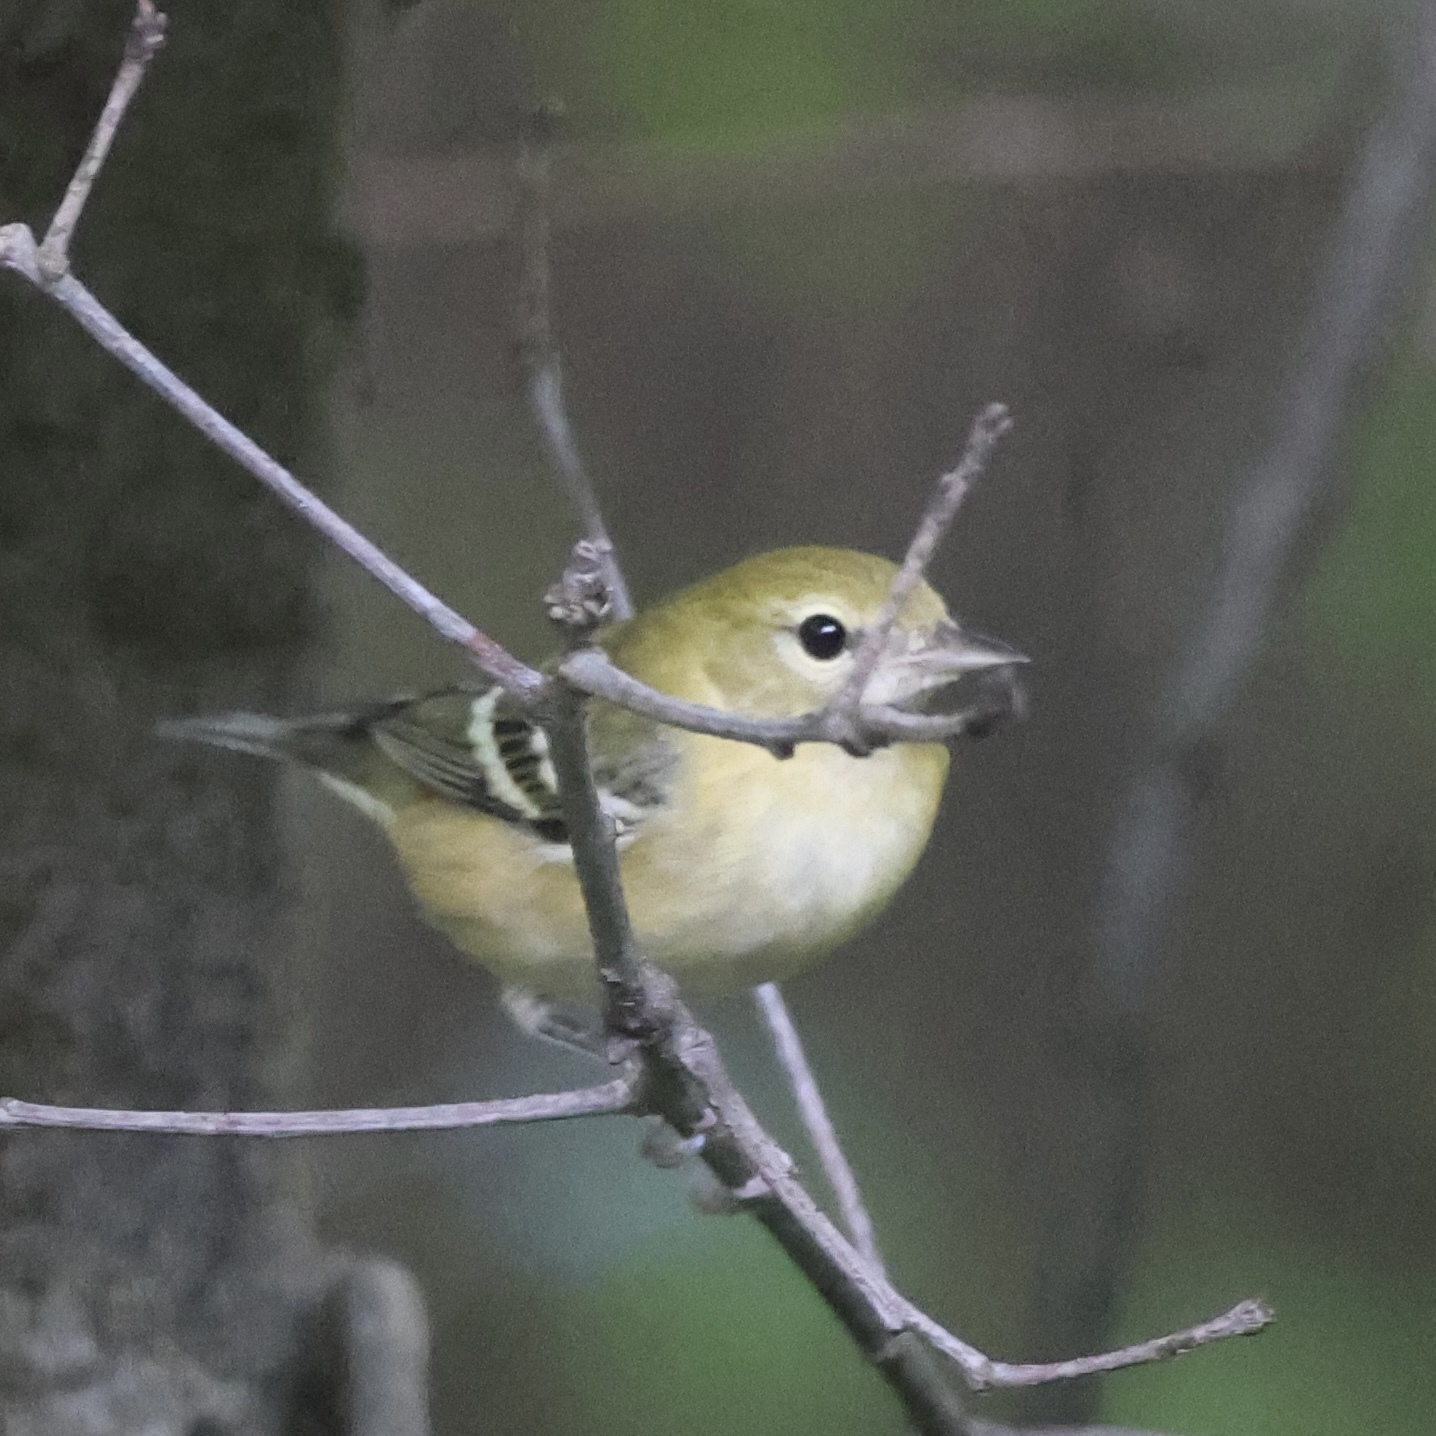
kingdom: Animalia
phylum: Chordata
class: Aves
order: Passeriformes
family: Parulidae
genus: Setophaga
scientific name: Setophaga castanea
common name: Bay-breasted warbler
